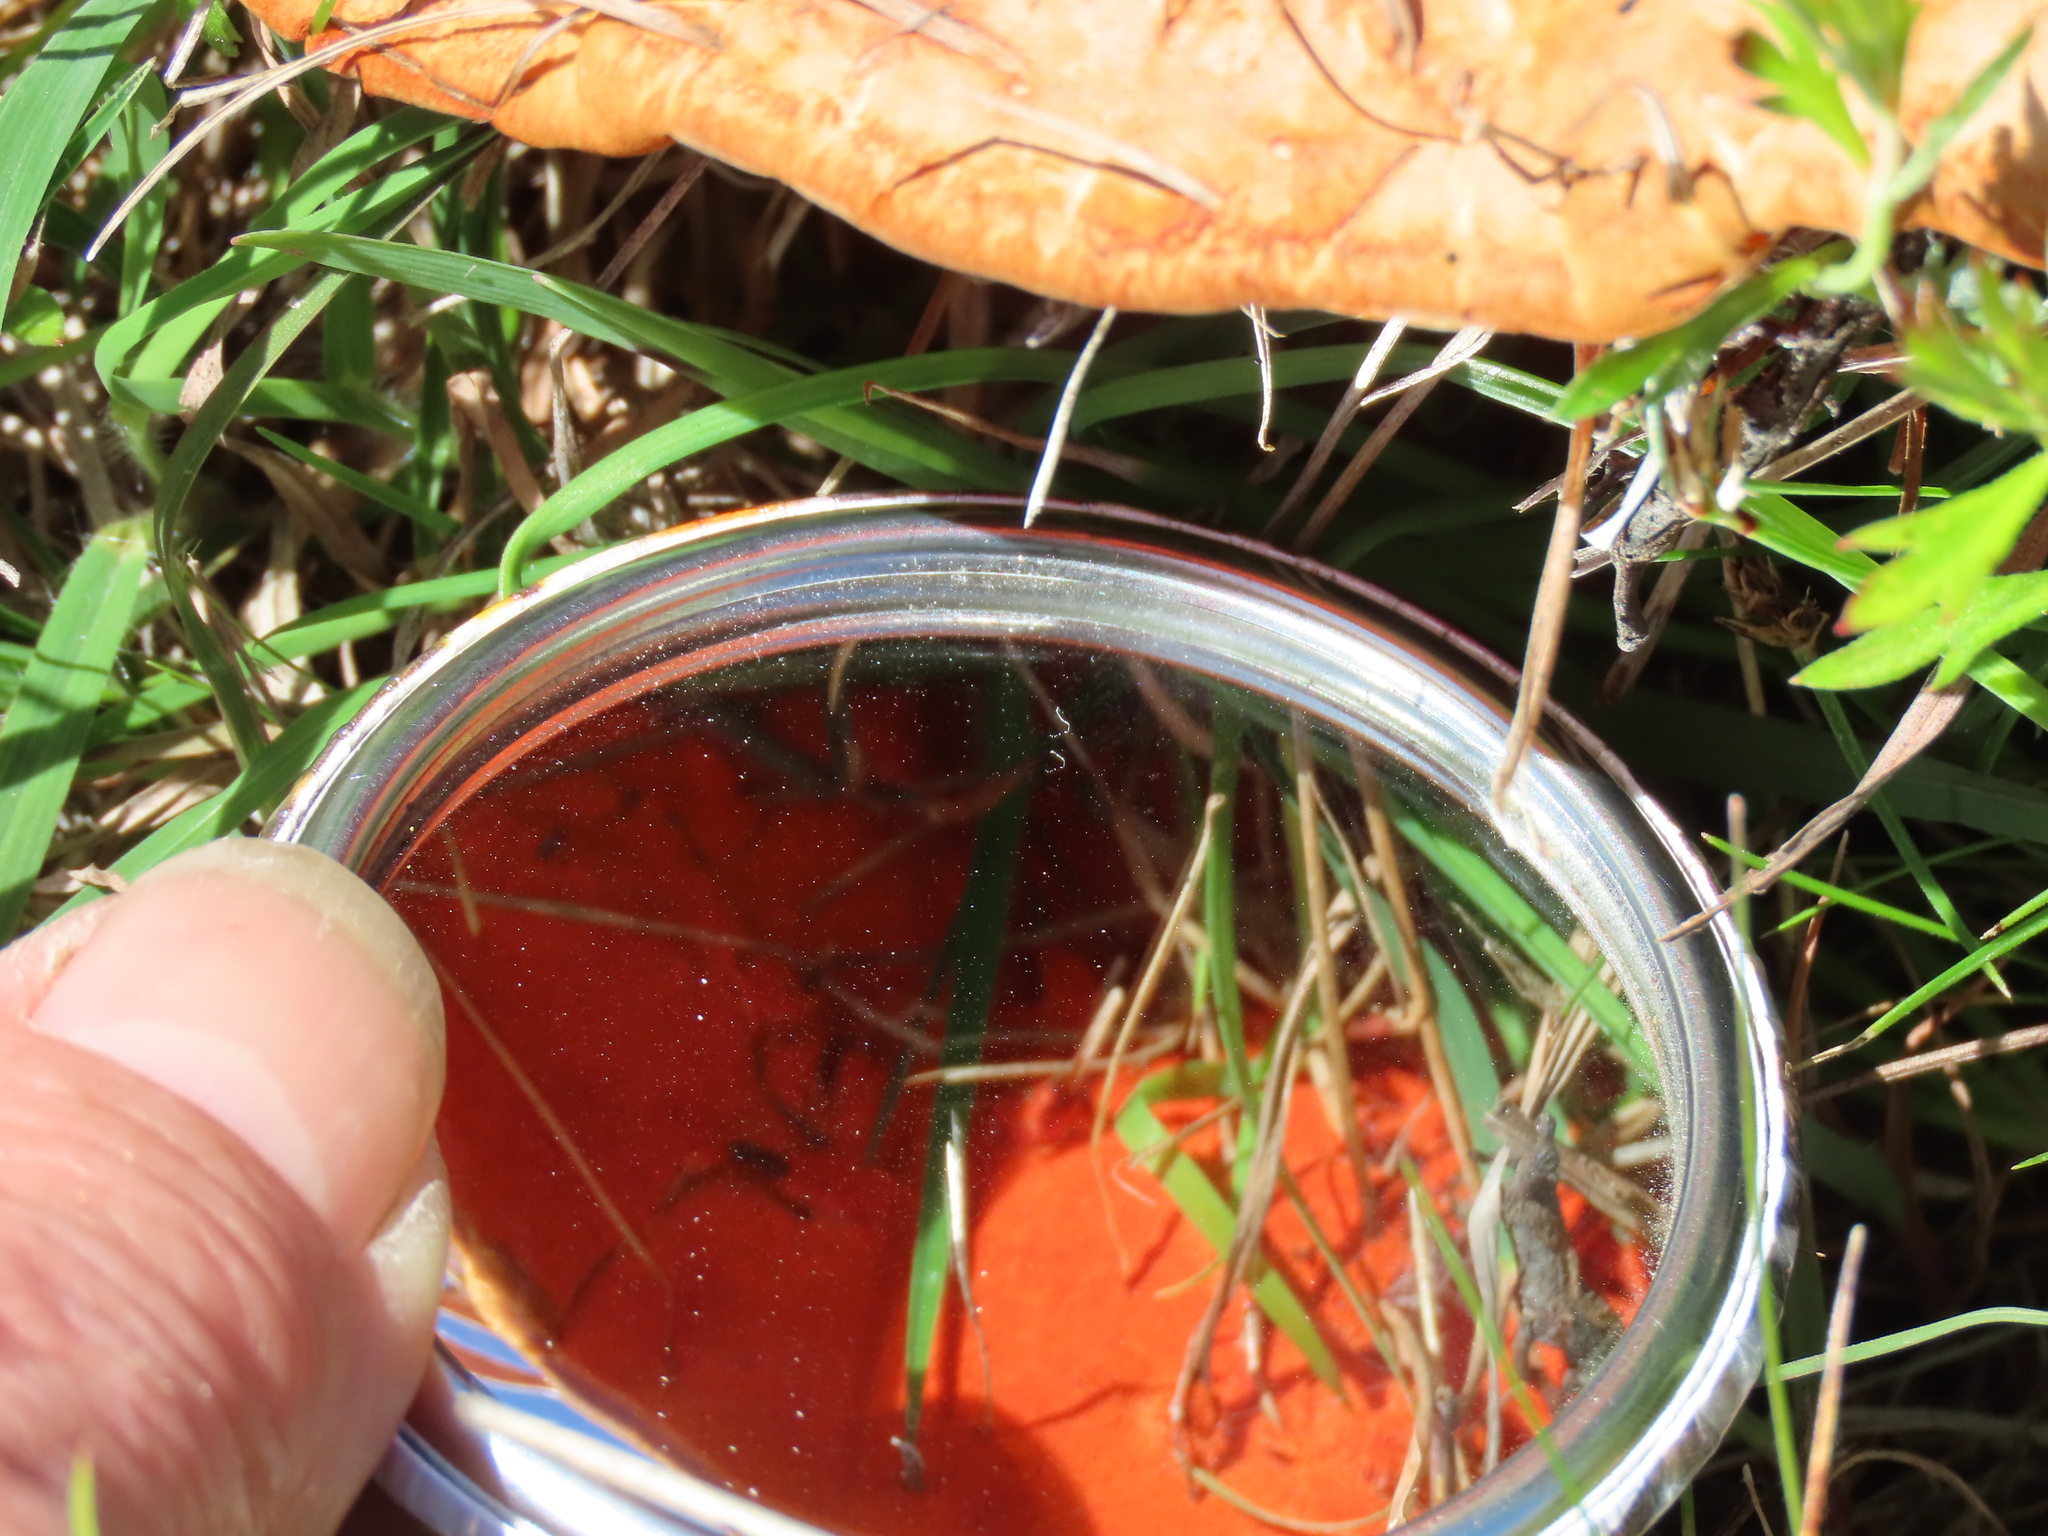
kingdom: Fungi
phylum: Basidiomycota
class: Agaricomycetes
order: Polyporales
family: Polyporaceae
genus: Trametes
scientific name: Trametes coccinea
